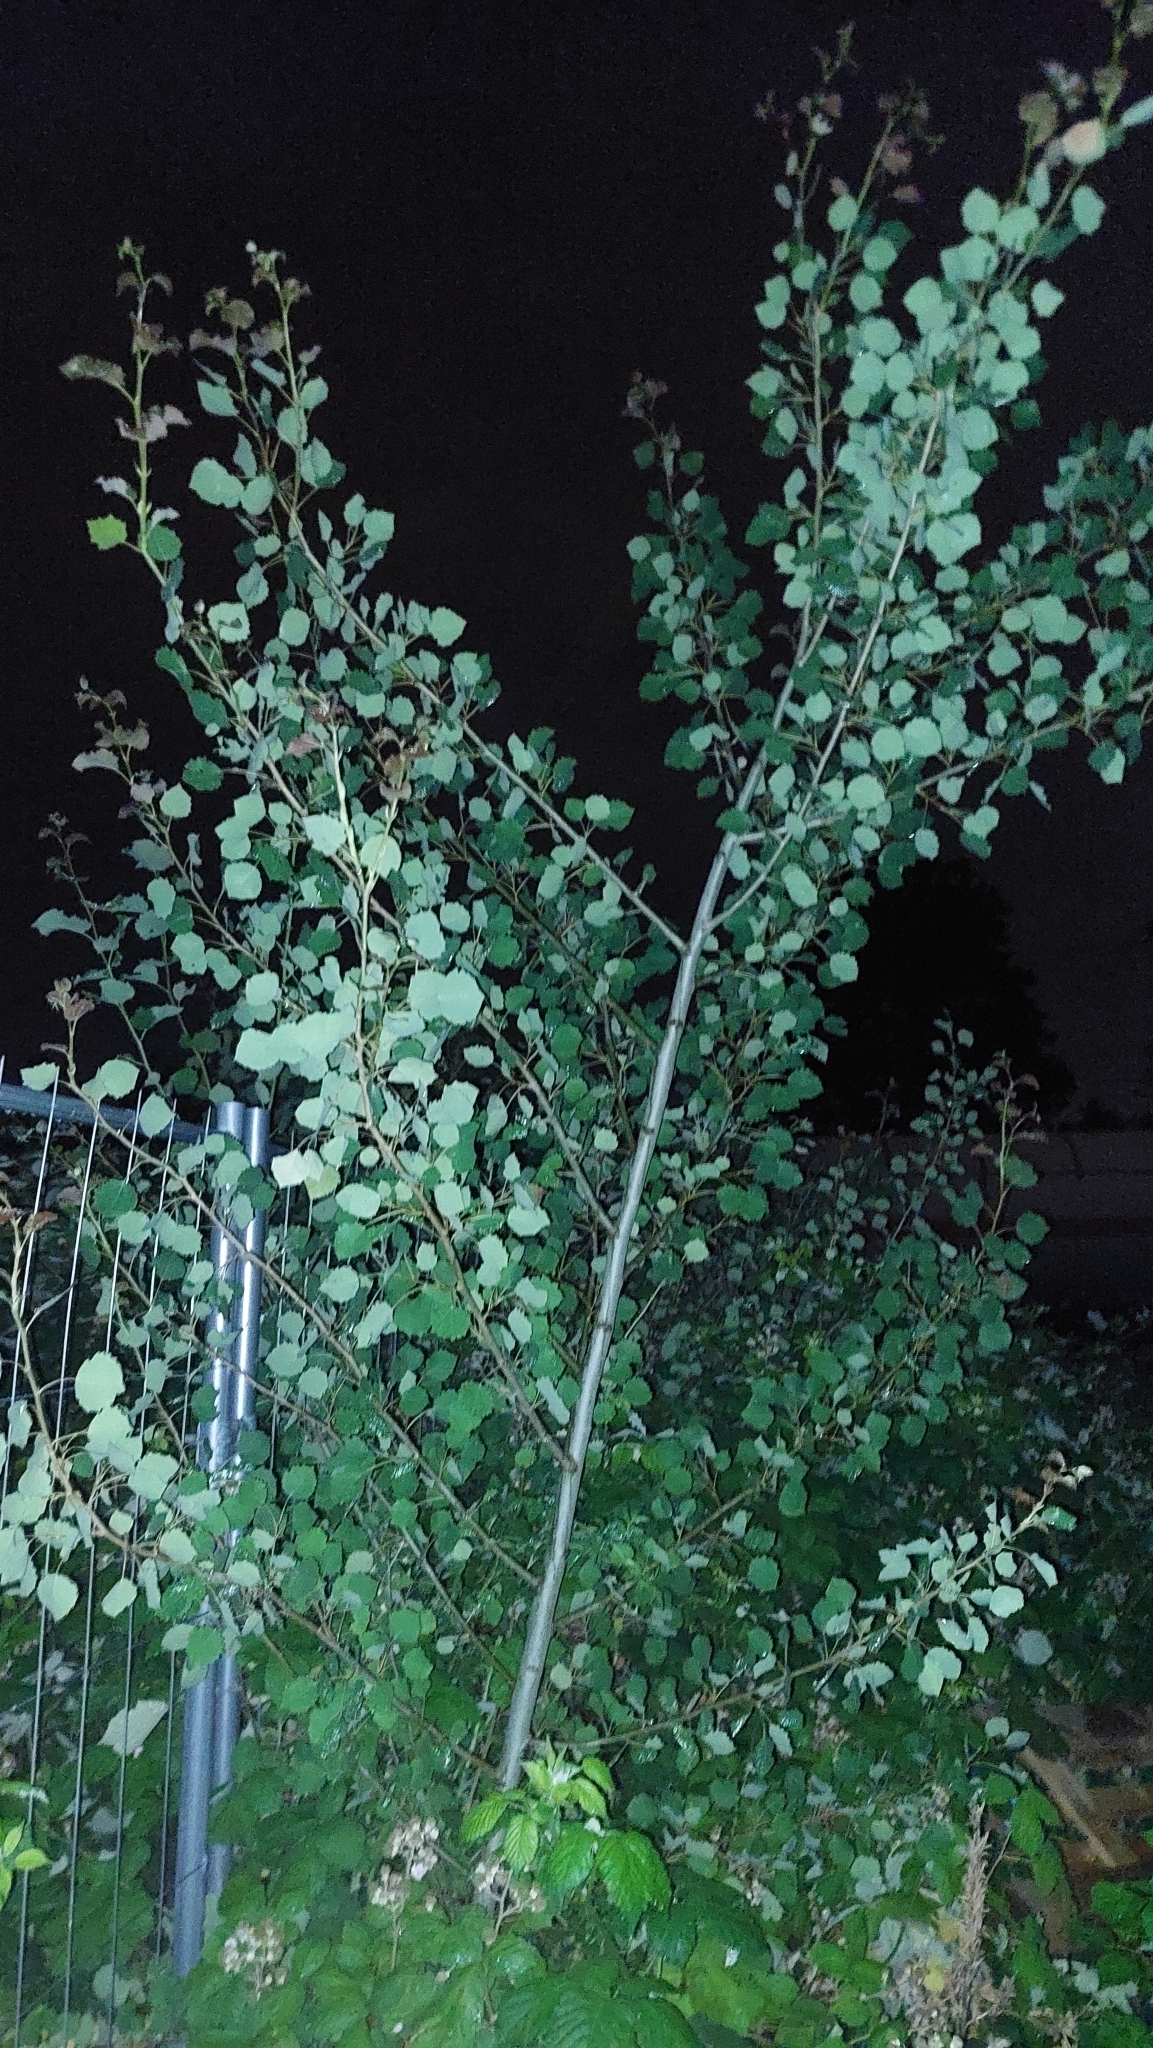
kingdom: Plantae
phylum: Tracheophyta
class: Magnoliopsida
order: Malpighiales
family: Salicaceae
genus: Populus
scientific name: Populus tremula
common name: European aspen
